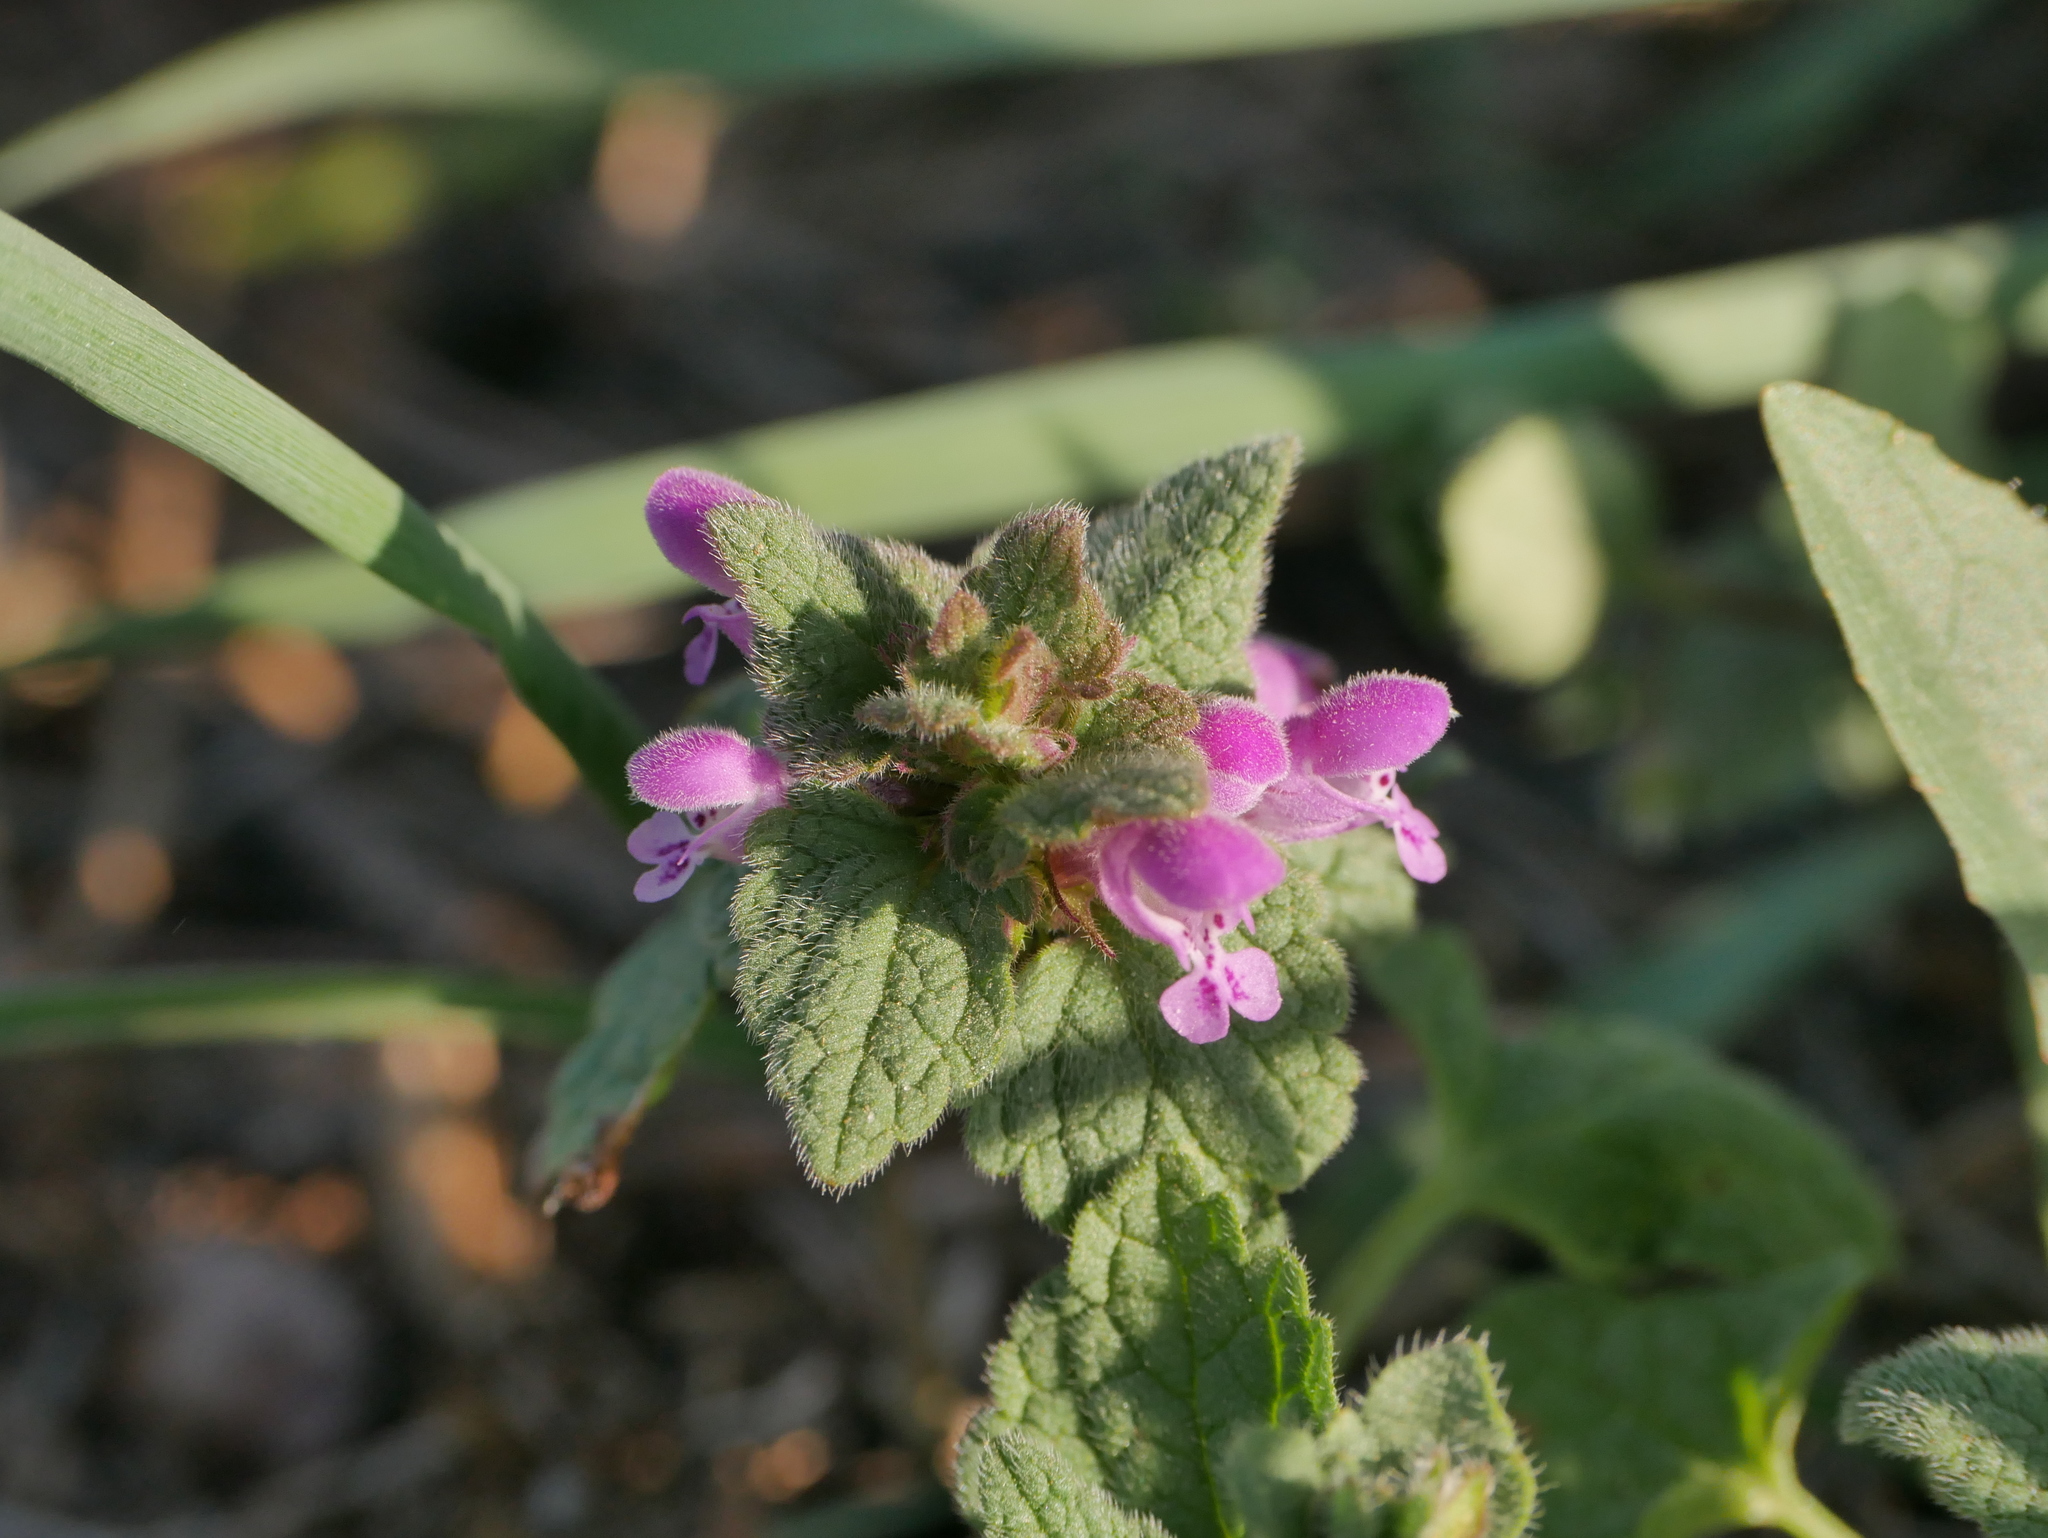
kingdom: Plantae
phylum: Tracheophyta
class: Magnoliopsida
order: Lamiales
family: Lamiaceae
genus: Lamium
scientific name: Lamium purpureum
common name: Red dead-nettle
